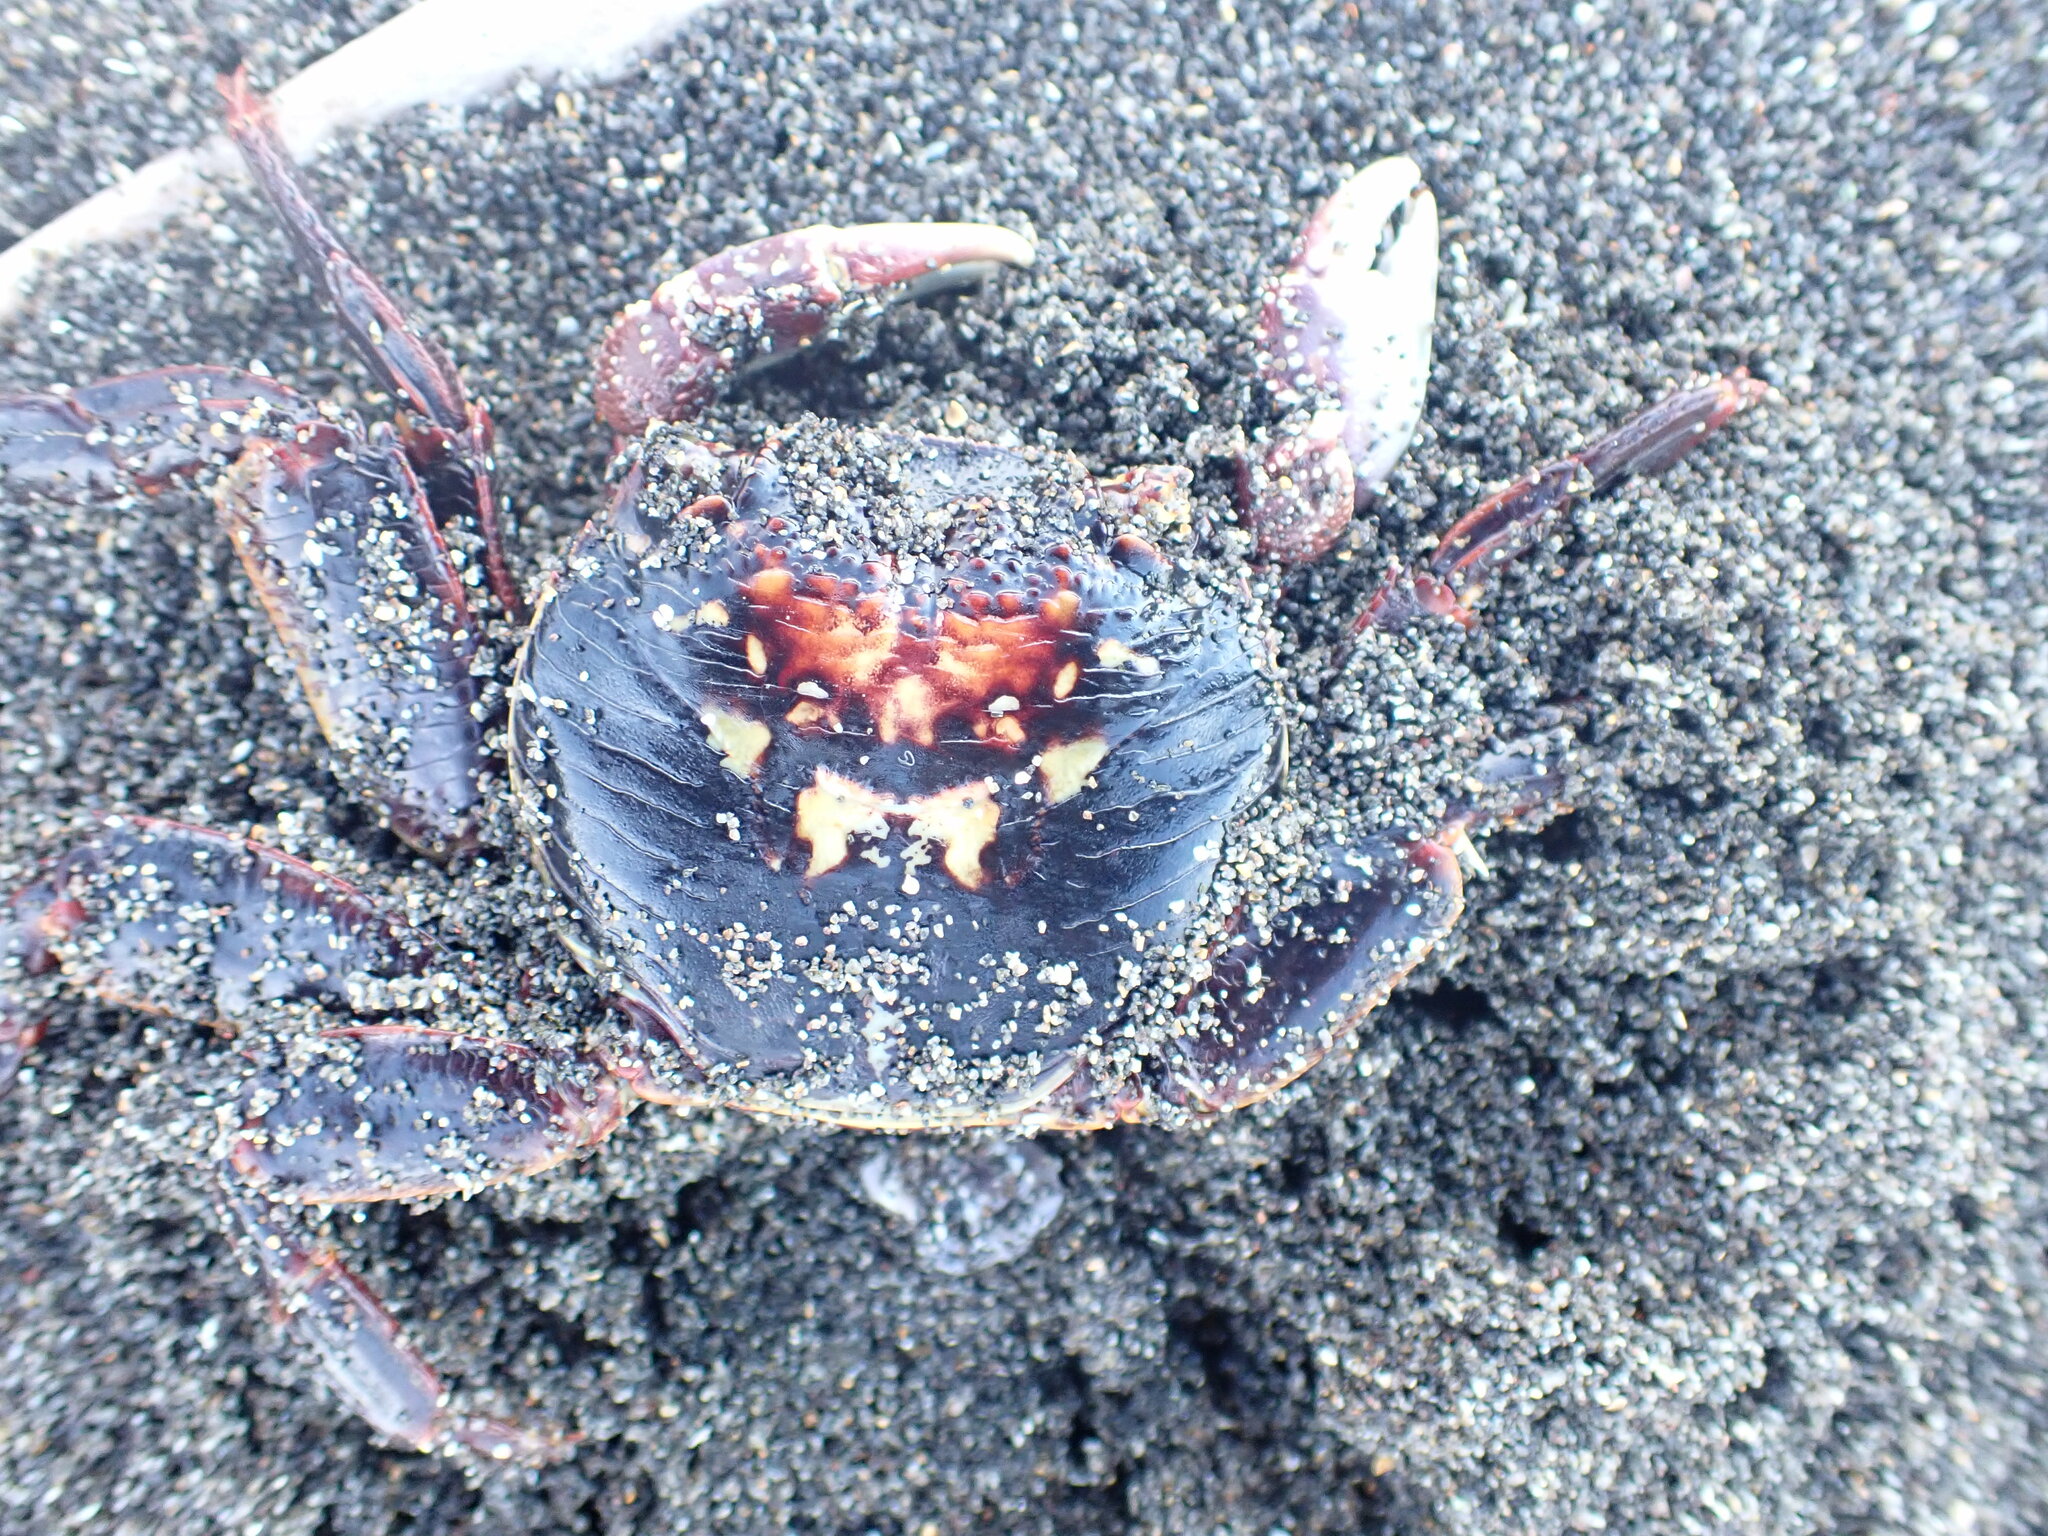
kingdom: Animalia
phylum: Arthropoda
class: Malacostraca
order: Decapoda
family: Grapsidae
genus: Leptograpsus
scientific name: Leptograpsus variegatus
